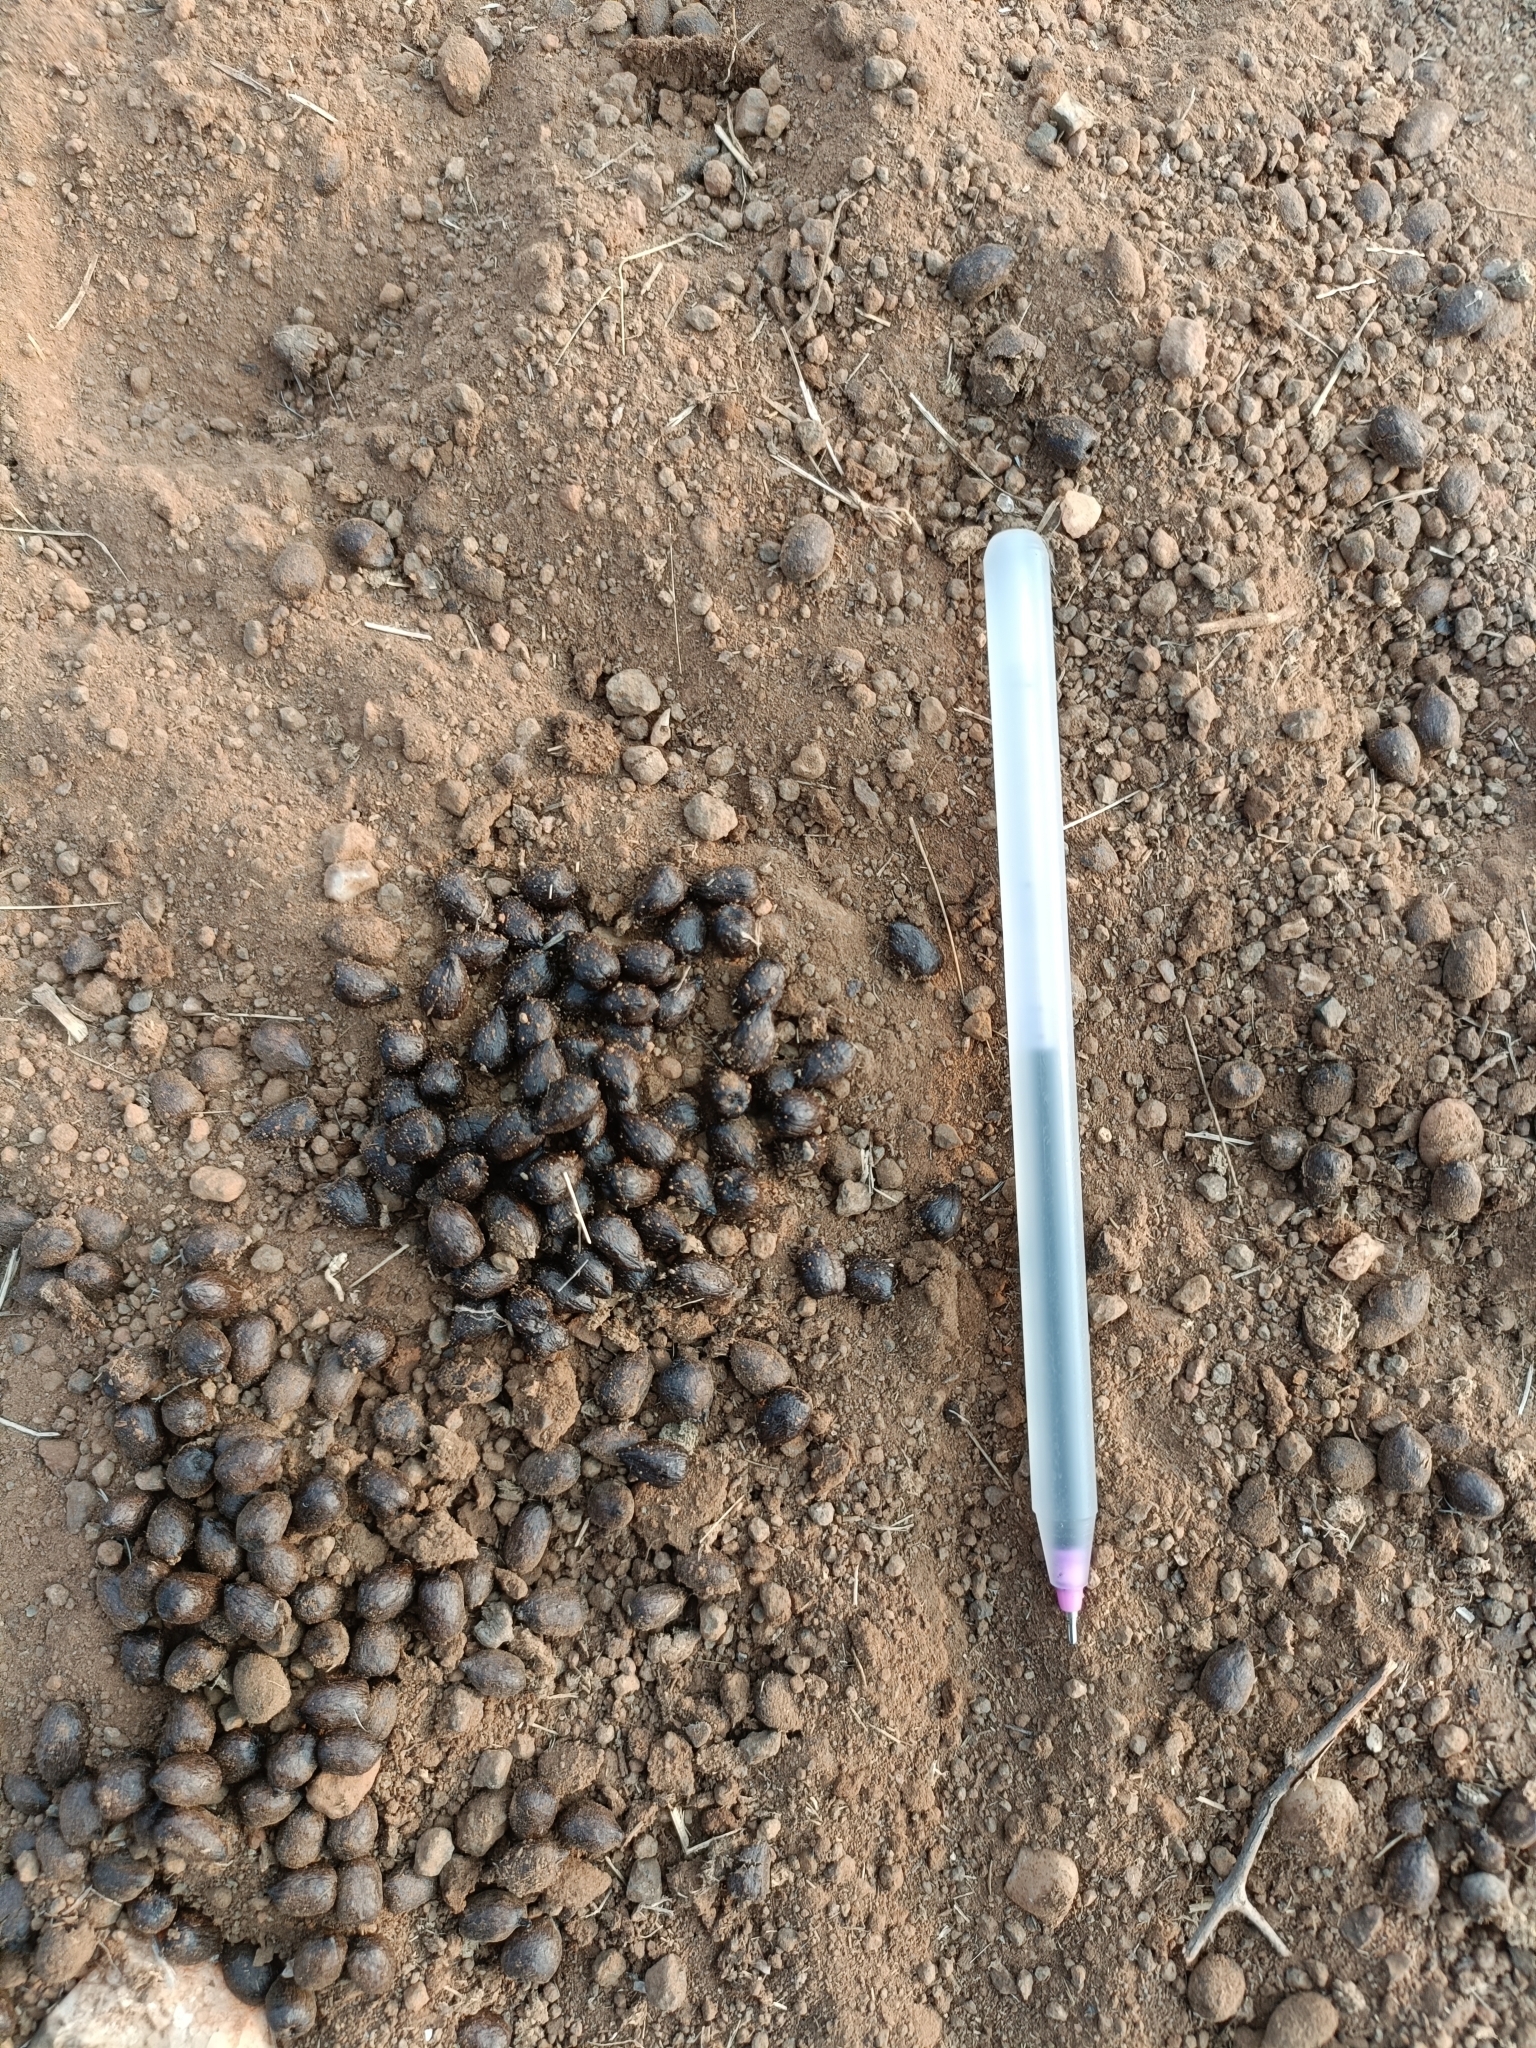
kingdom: Animalia
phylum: Chordata
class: Mammalia
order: Artiodactyla
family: Bovidae
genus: Gazella
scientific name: Gazella bennettii
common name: Indian gazelle
